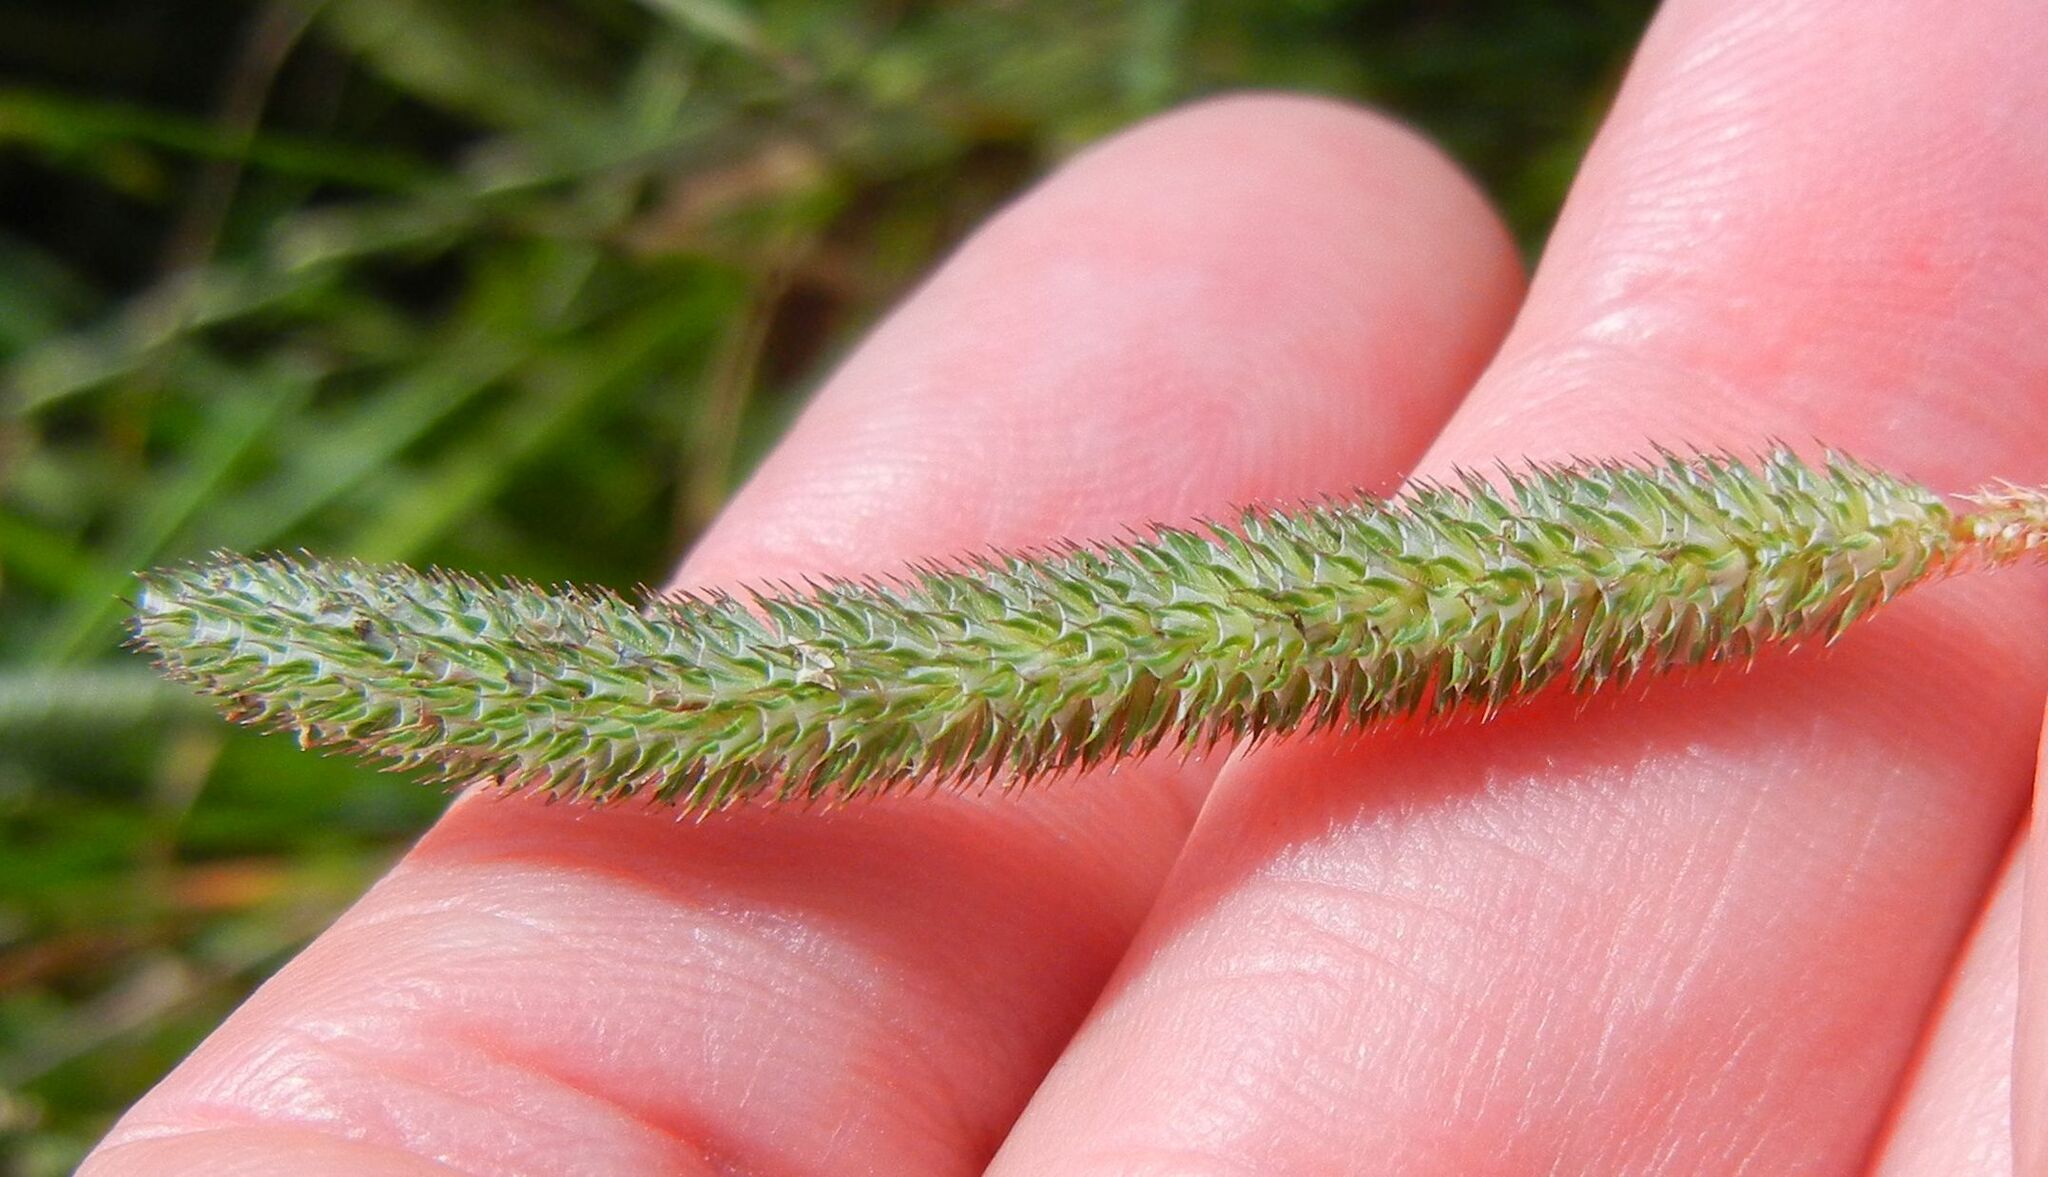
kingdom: Plantae
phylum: Tracheophyta
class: Liliopsida
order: Poales
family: Poaceae
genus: Phleum
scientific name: Phleum pratense
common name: Timothy grass
